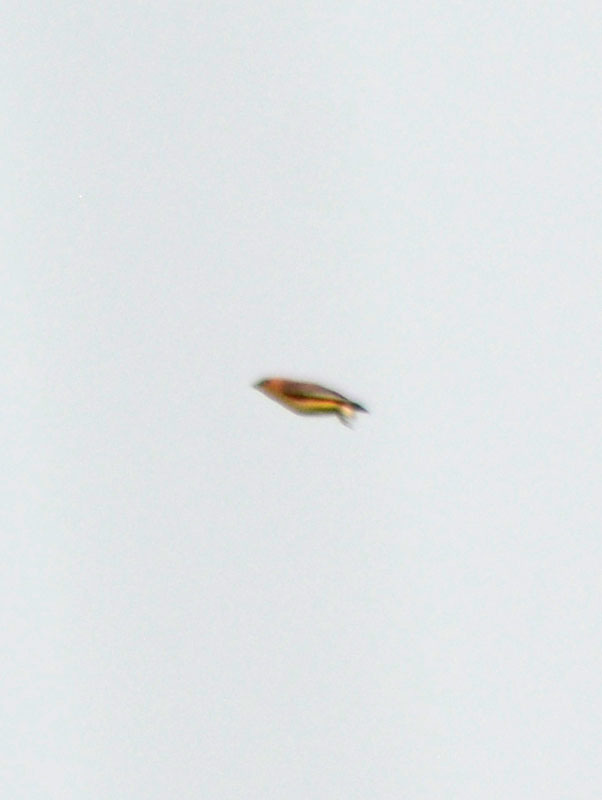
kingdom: Animalia
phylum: Chordata
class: Aves
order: Passeriformes
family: Bombycillidae
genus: Bombycilla
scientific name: Bombycilla cedrorum
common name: Cedar waxwing
